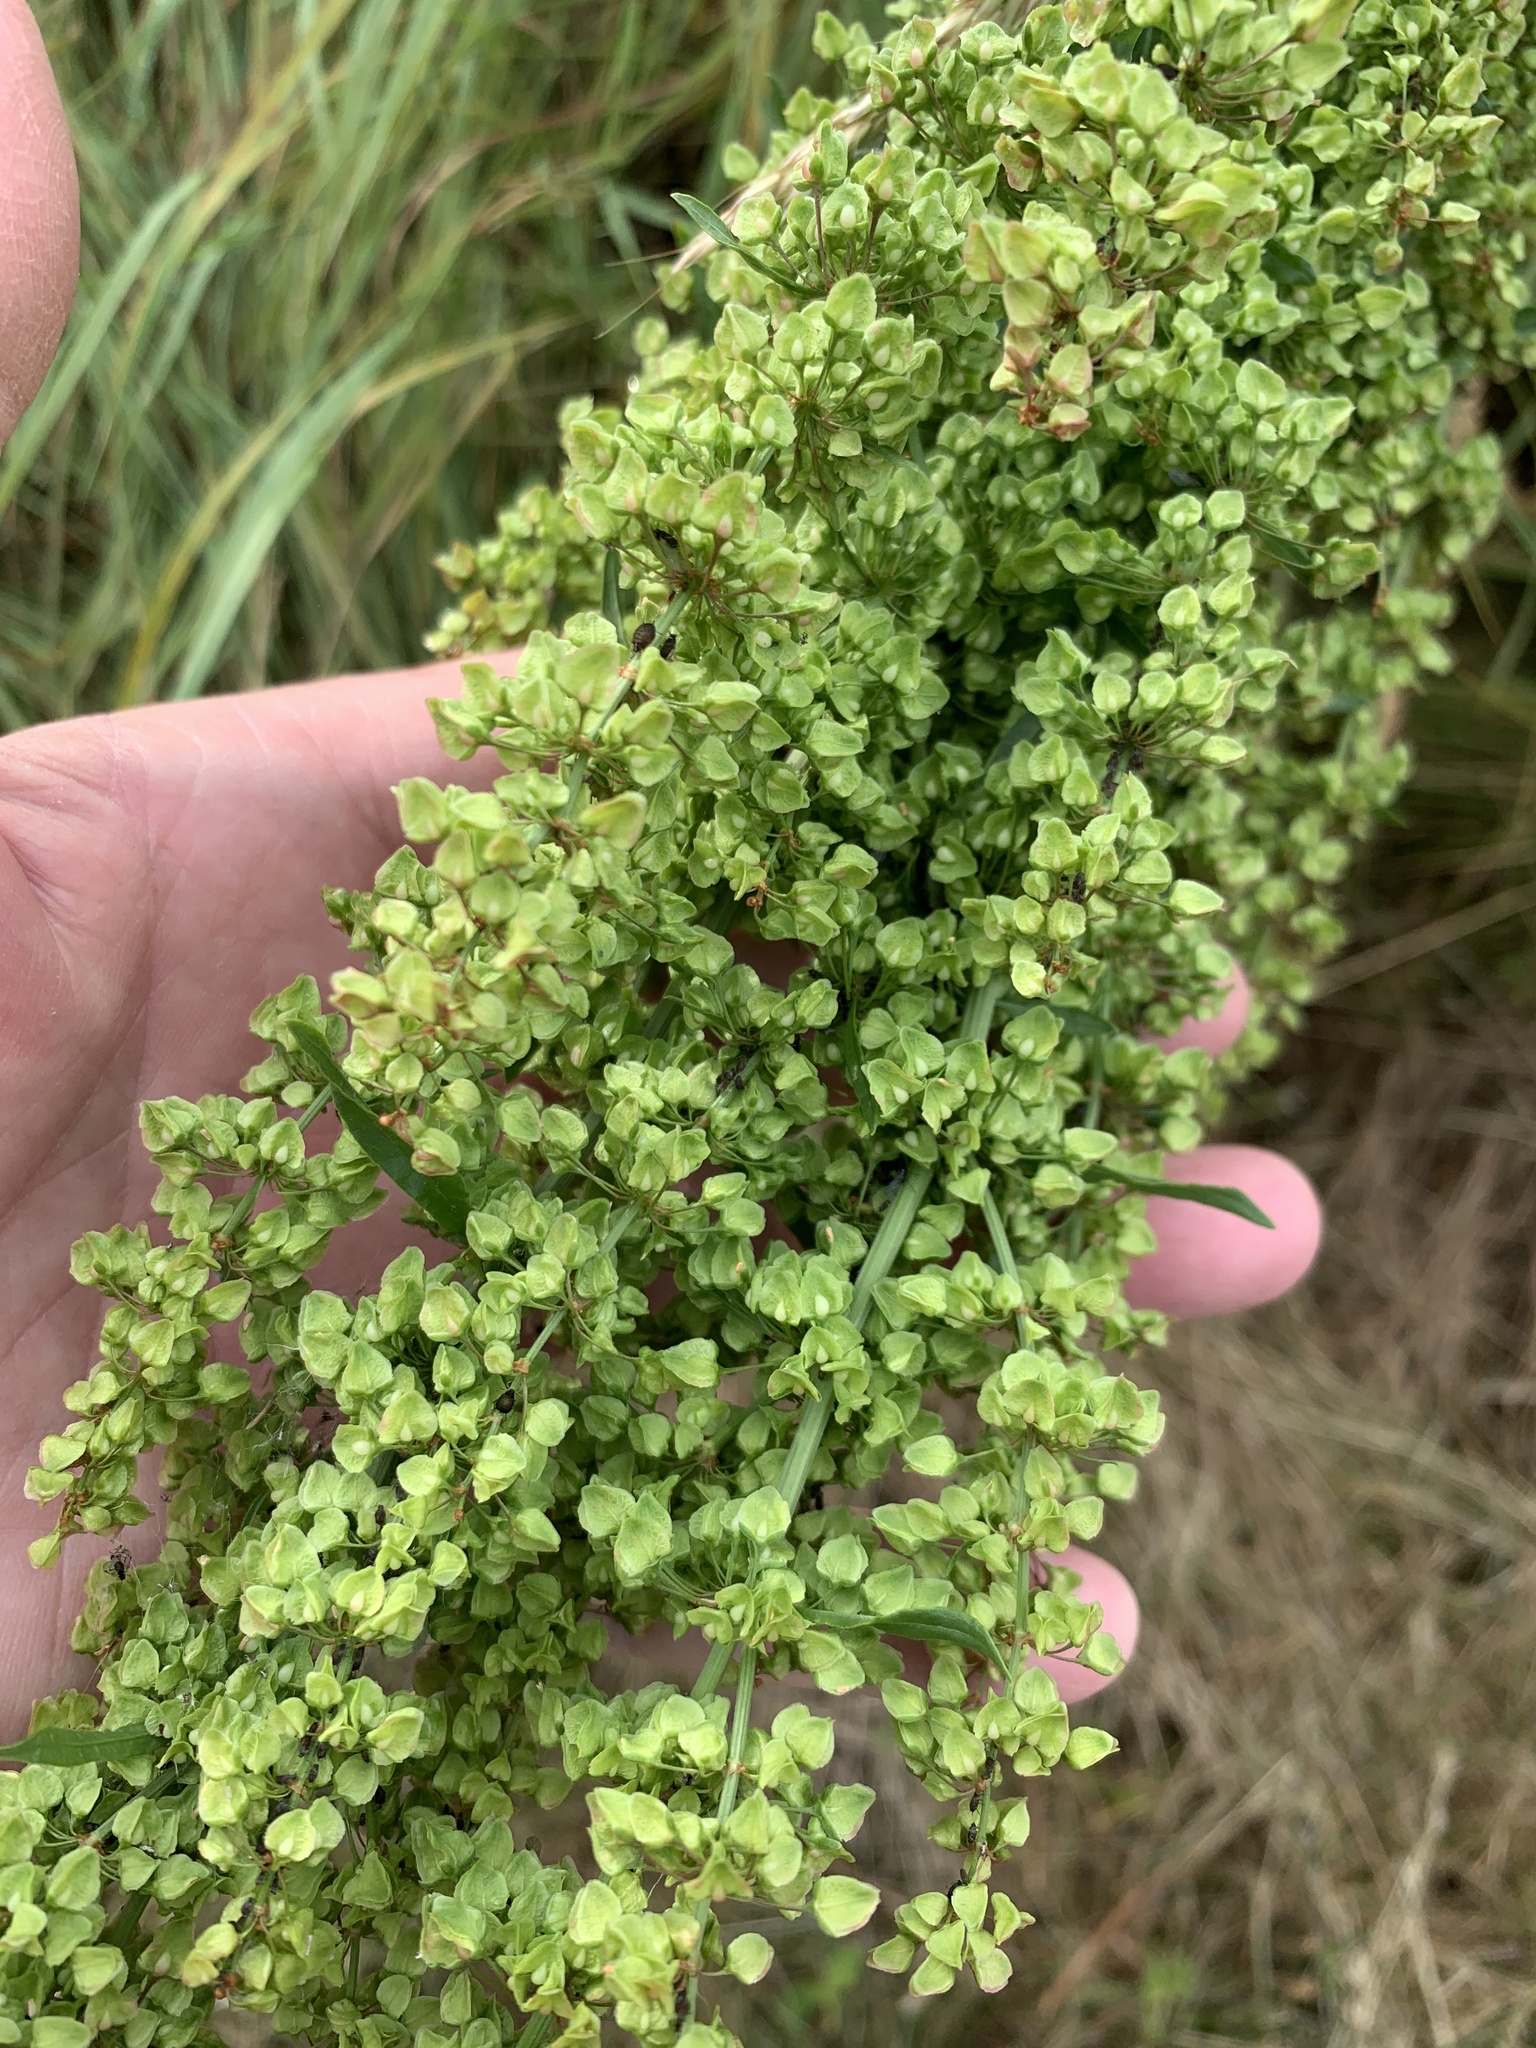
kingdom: Plantae
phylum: Tracheophyta
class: Magnoliopsida
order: Caryophyllales
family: Polygonaceae
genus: Rumex
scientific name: Rumex crispus
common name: Curled dock
